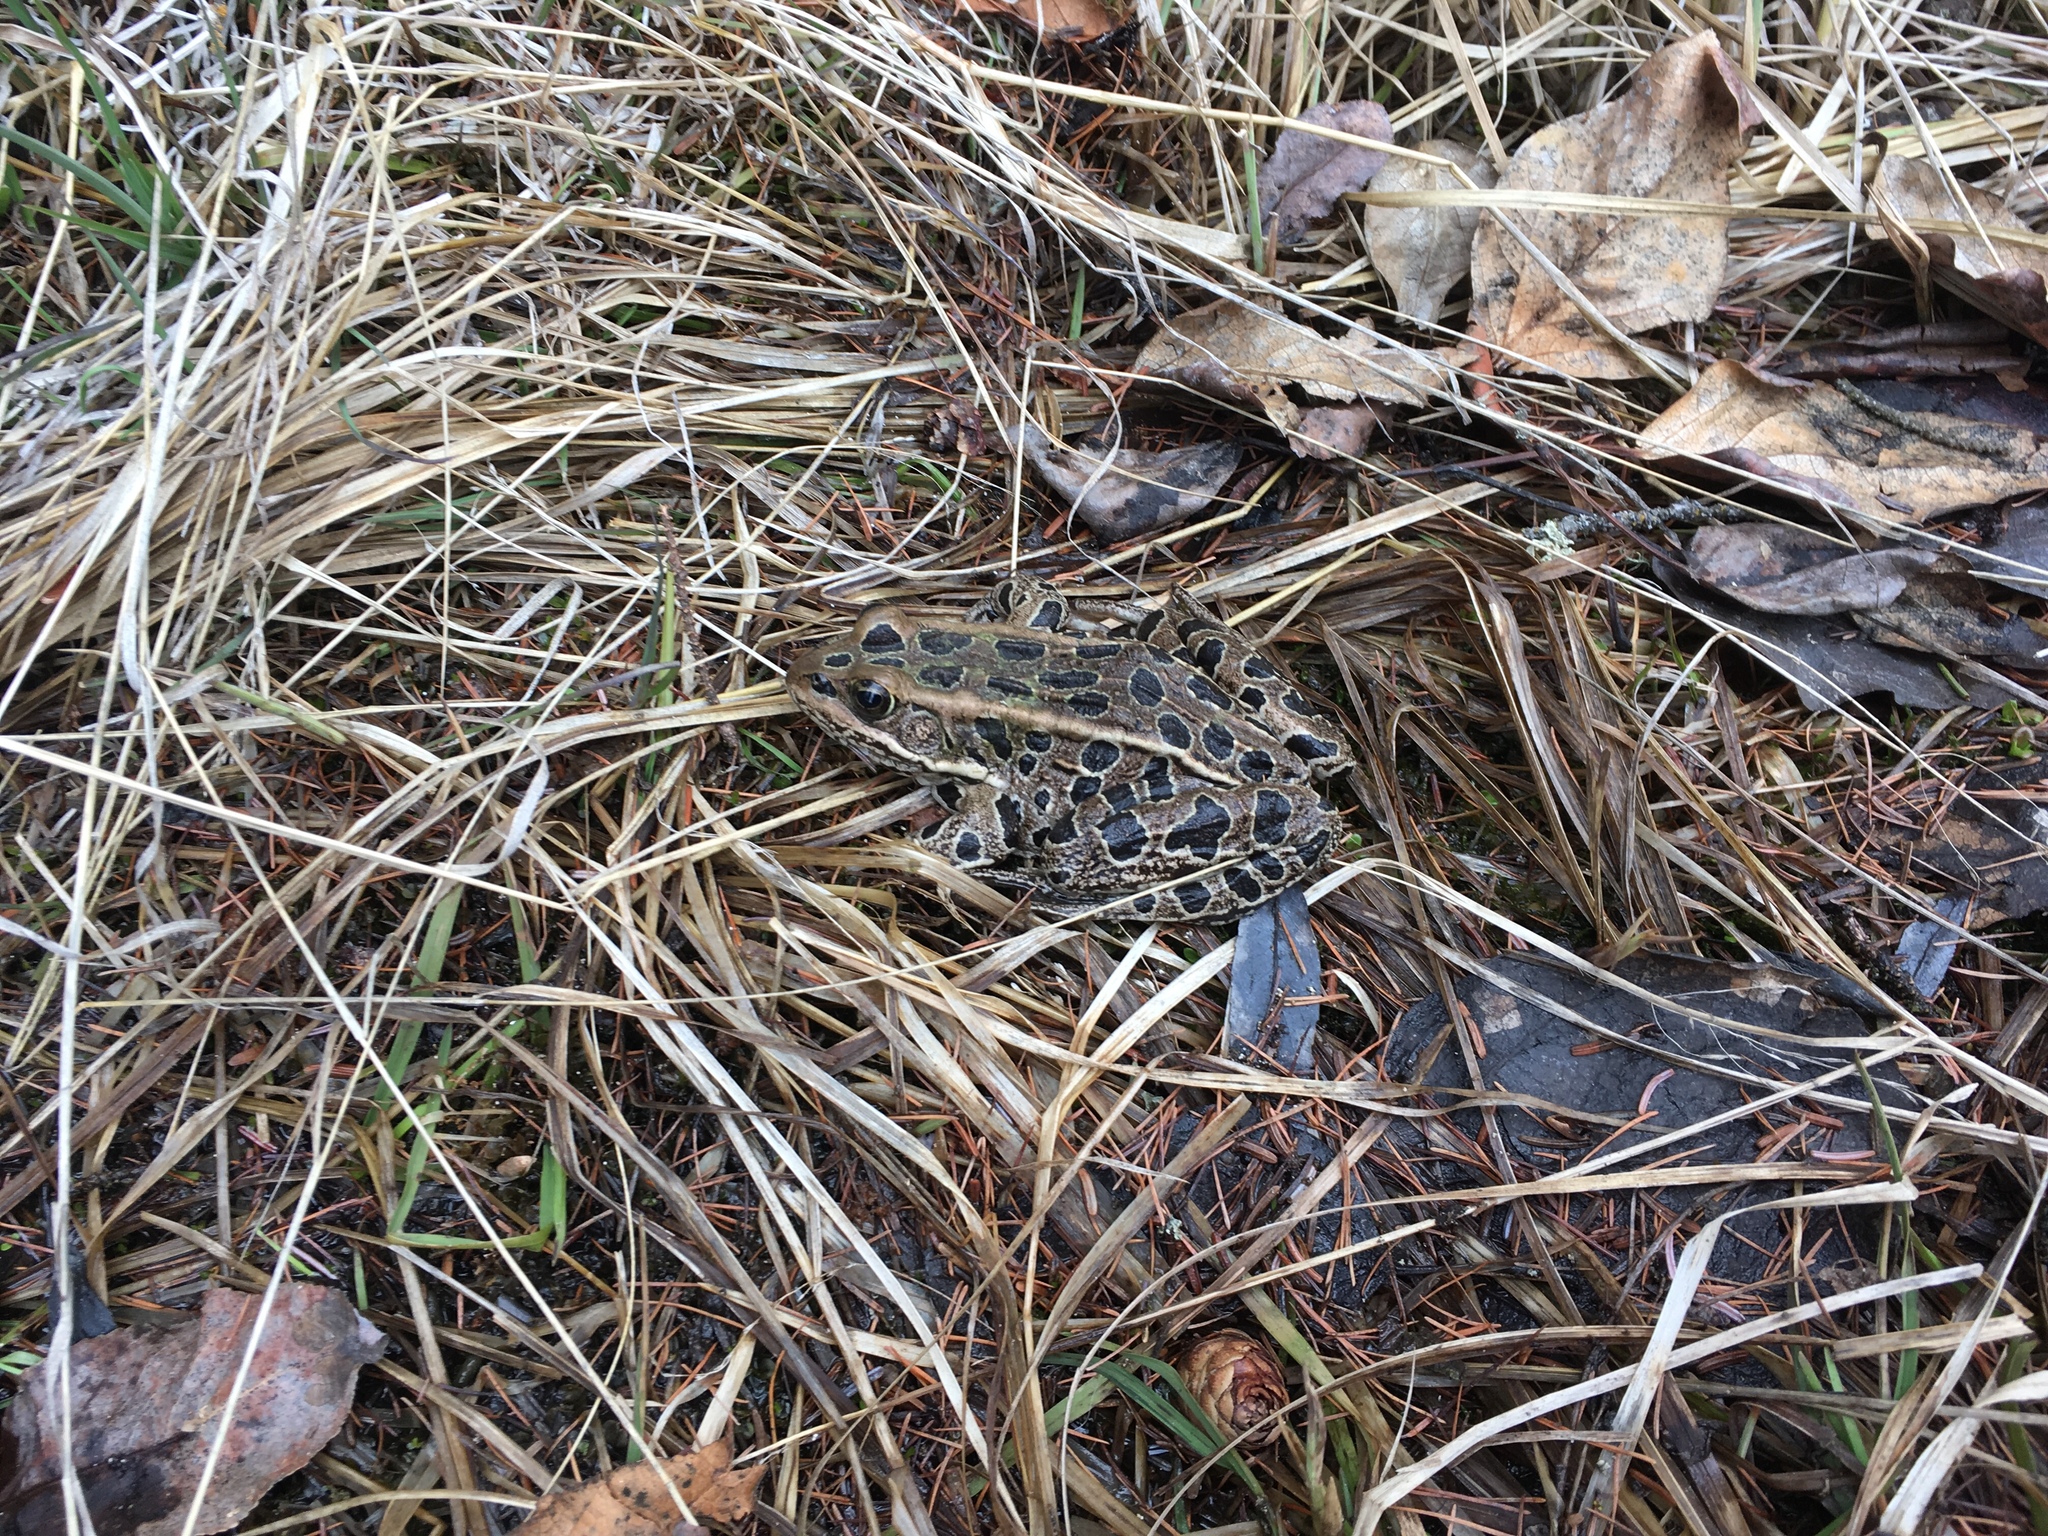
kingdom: Animalia
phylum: Chordata
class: Amphibia
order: Anura
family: Ranidae
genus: Lithobates
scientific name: Lithobates pipiens
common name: Northern leopard frog
